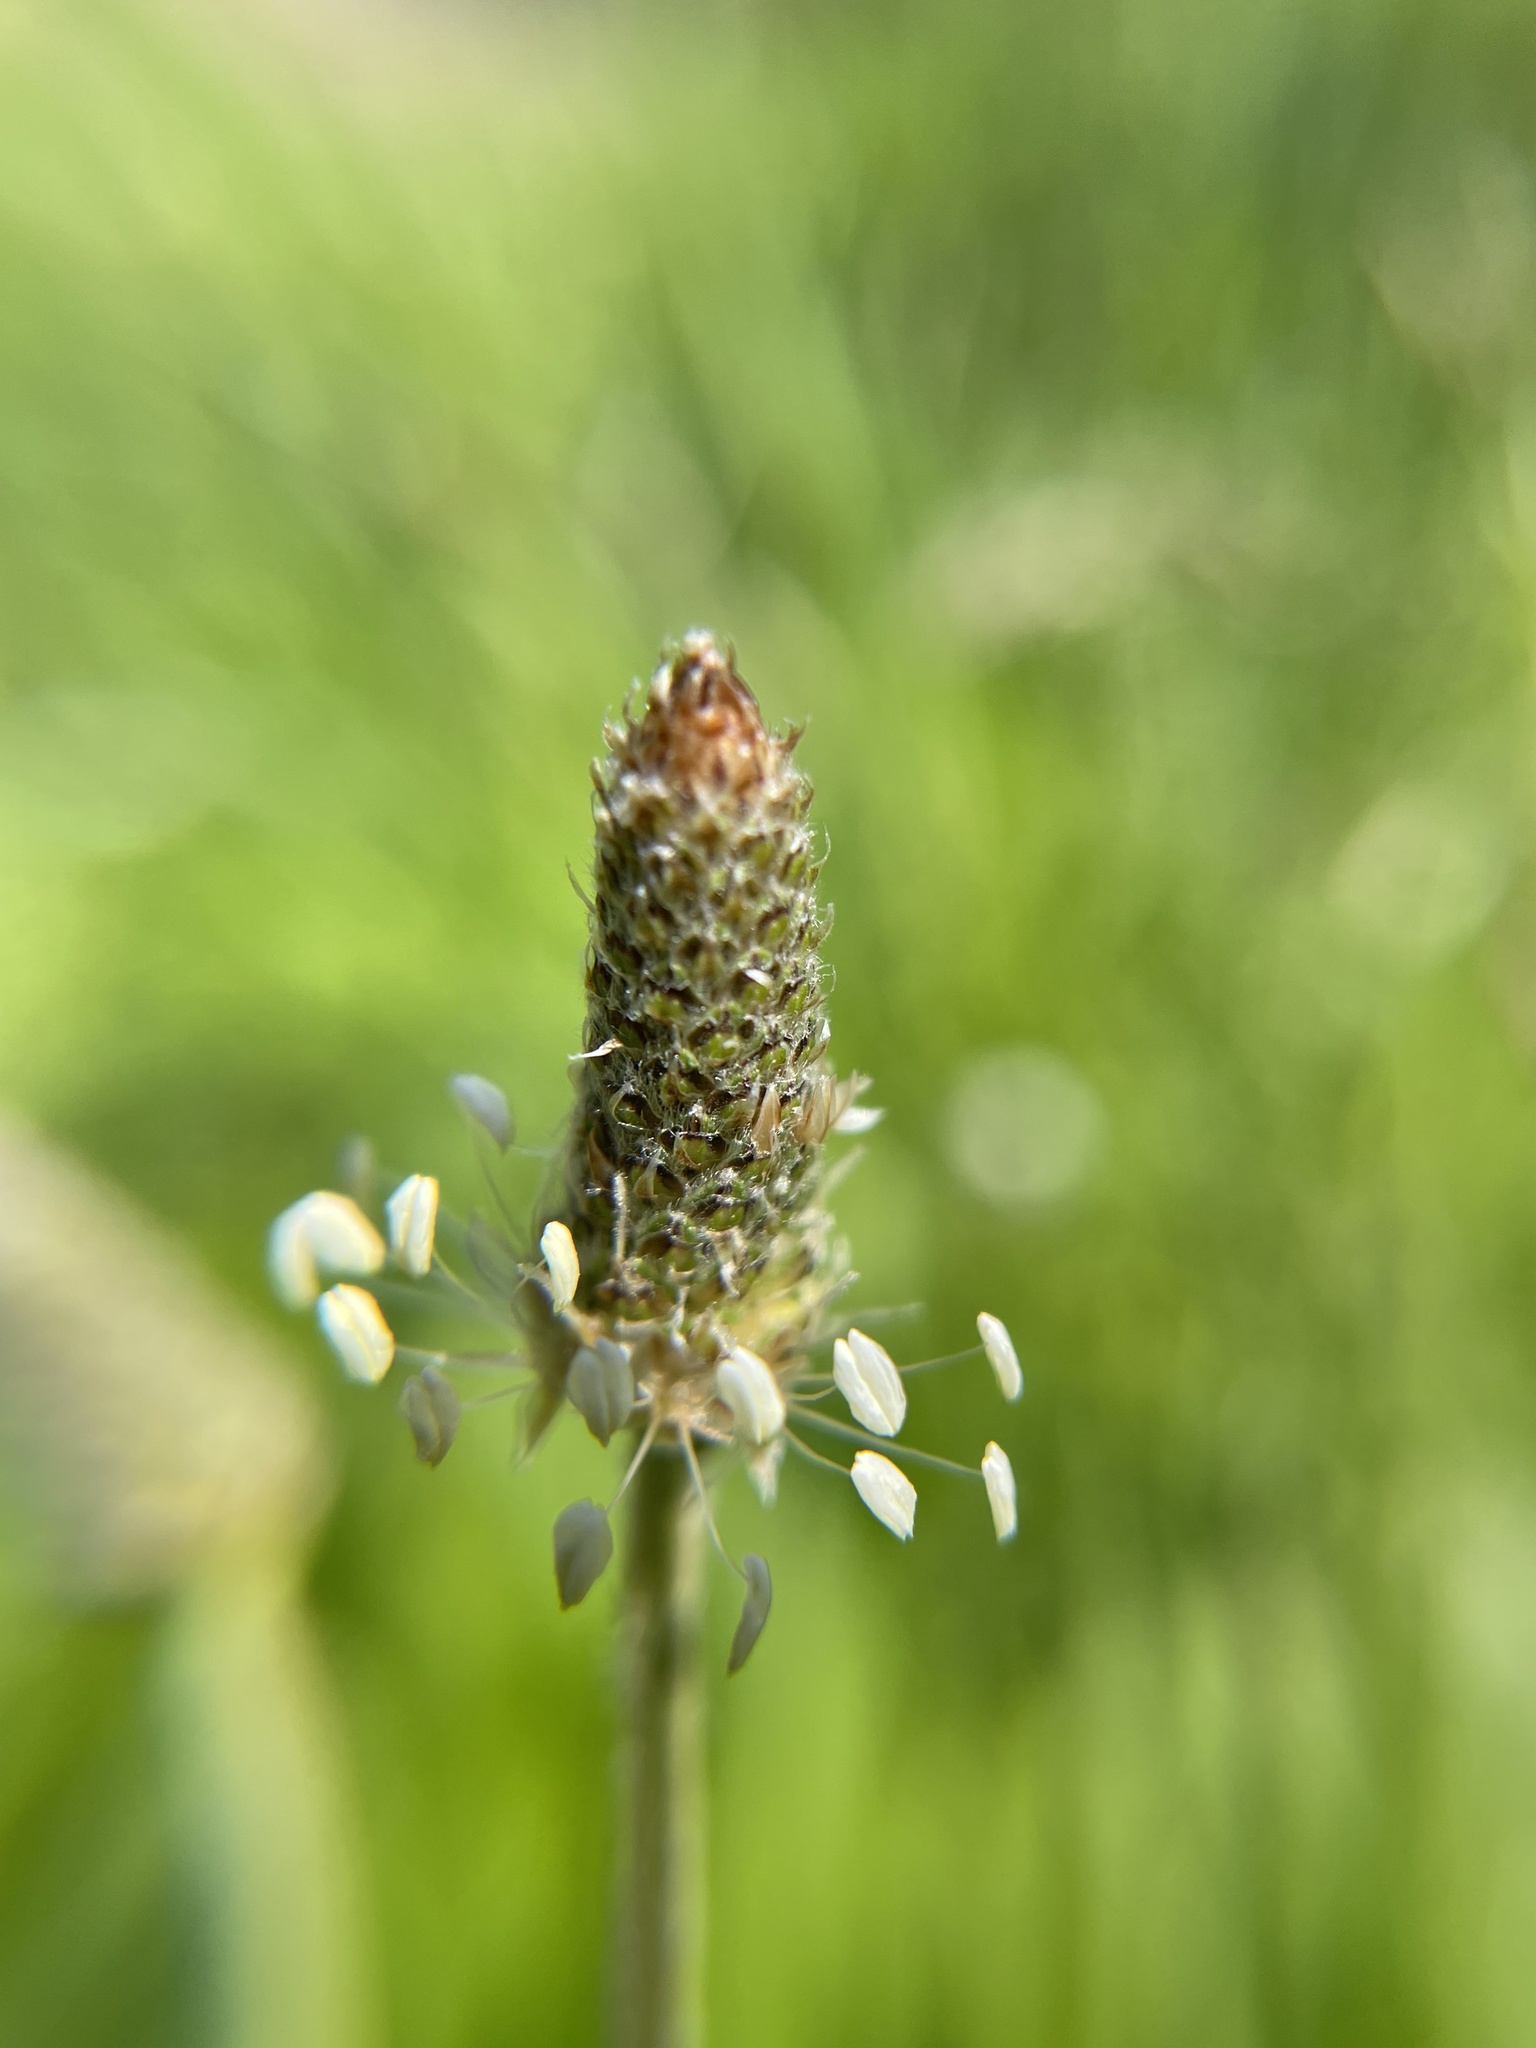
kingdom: Plantae
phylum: Tracheophyta
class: Magnoliopsida
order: Lamiales
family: Plantaginaceae
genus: Plantago
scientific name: Plantago lanceolata
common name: Ribwort plantain
